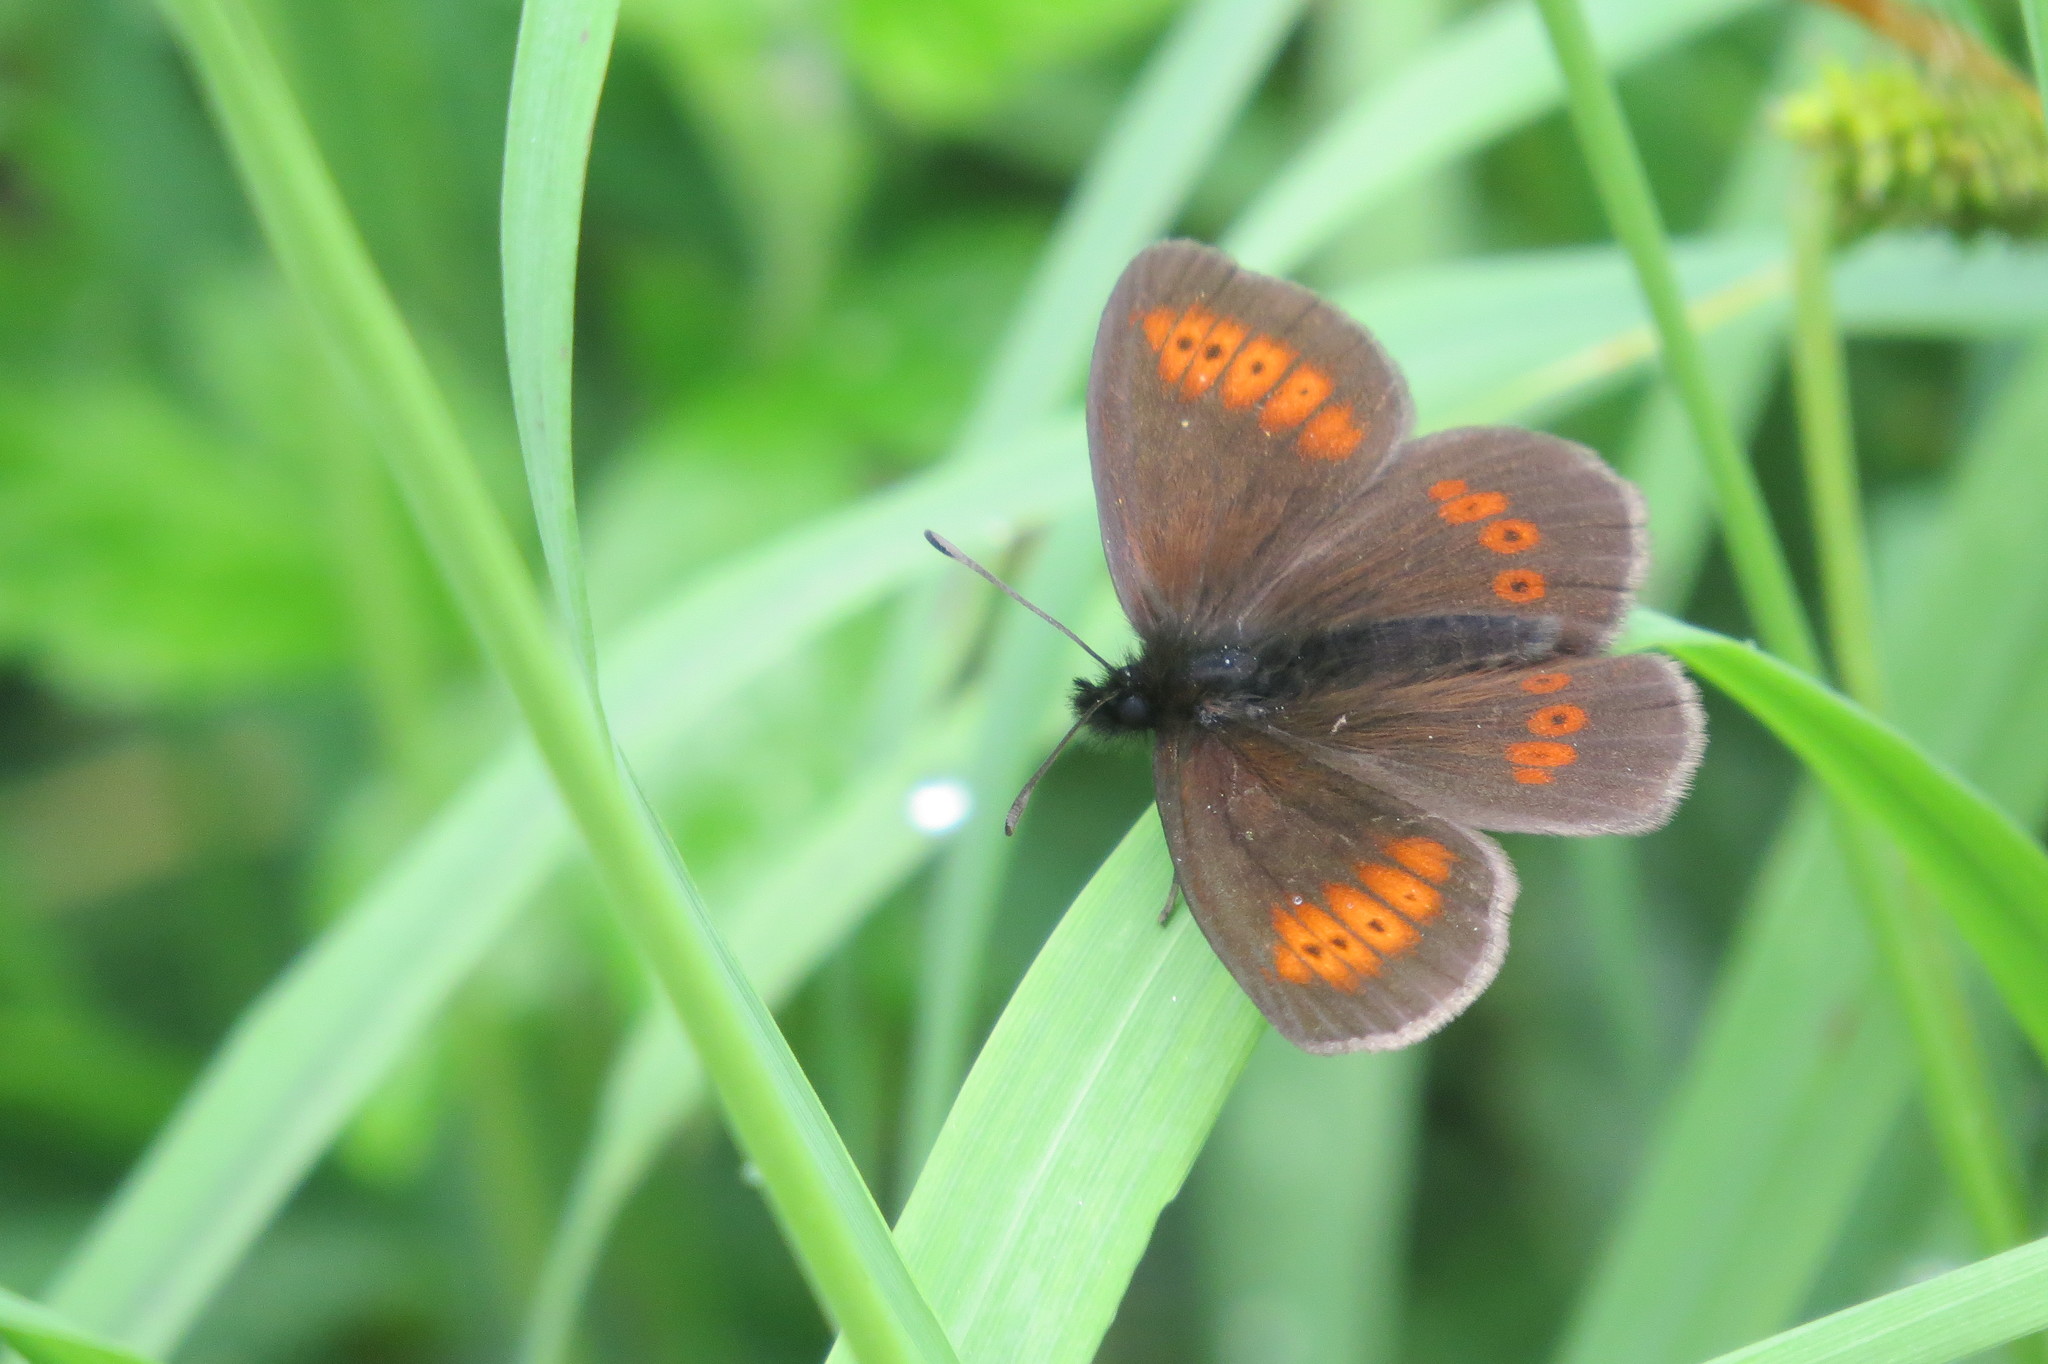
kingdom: Animalia
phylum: Arthropoda
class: Insecta
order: Lepidoptera
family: Nymphalidae
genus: Erebia
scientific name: Erebia melampus
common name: Lesser mountain ringlet
